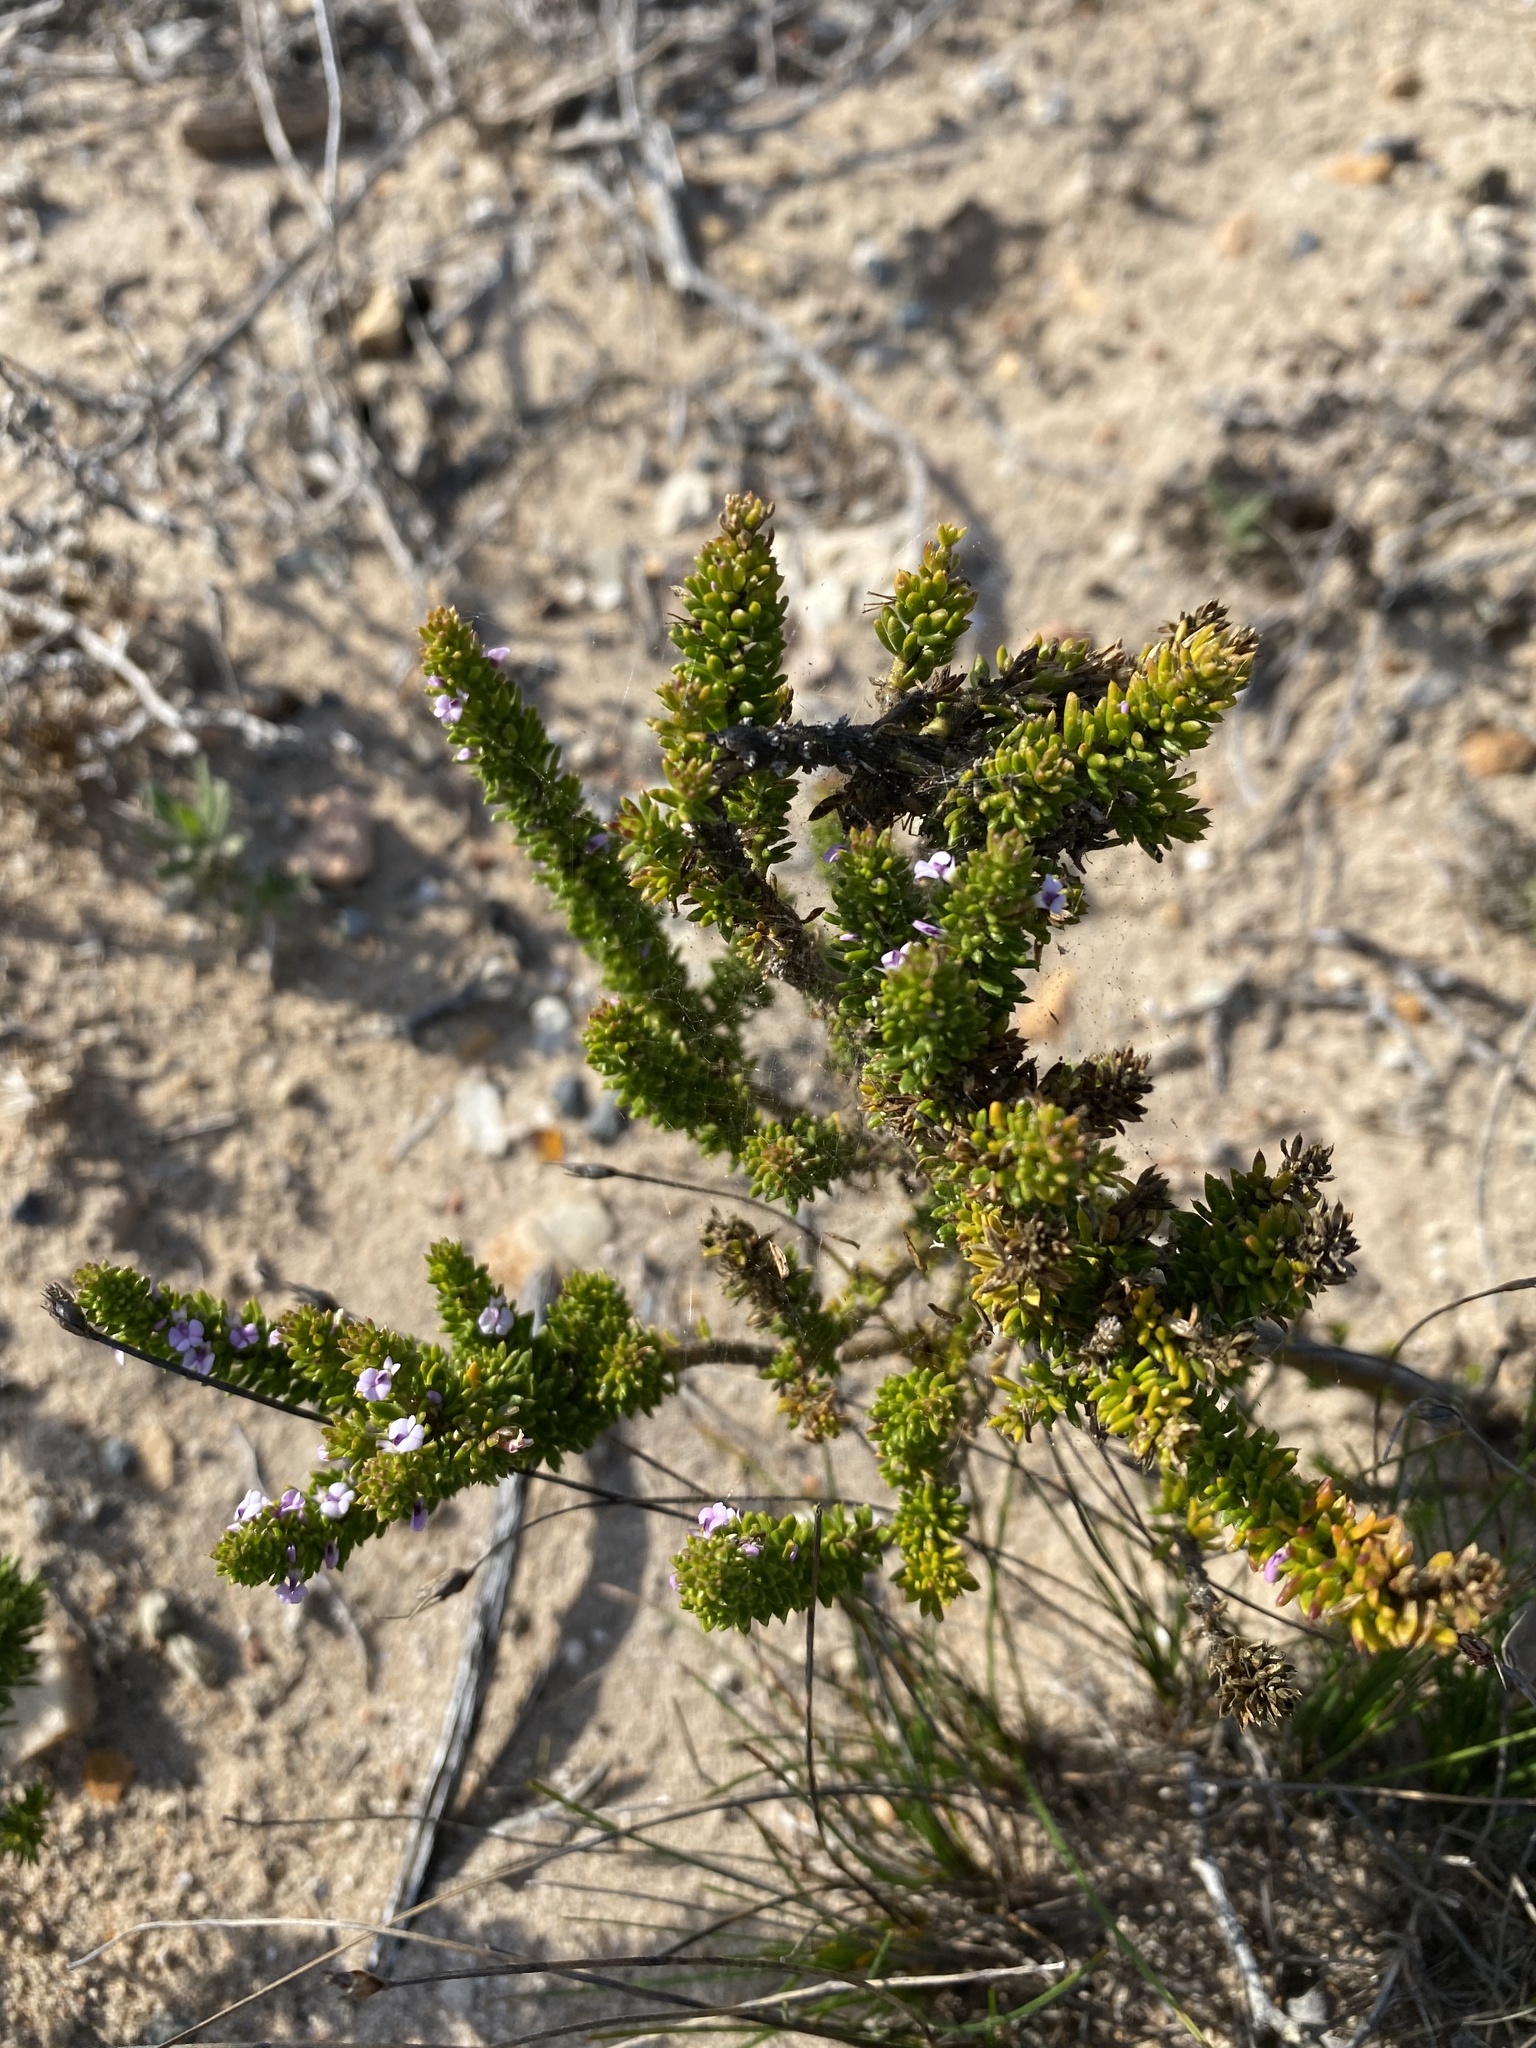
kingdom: Plantae
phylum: Tracheophyta
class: Magnoliopsida
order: Fabales
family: Polygalaceae
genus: Muraltia
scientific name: Muraltia alopecuroides
